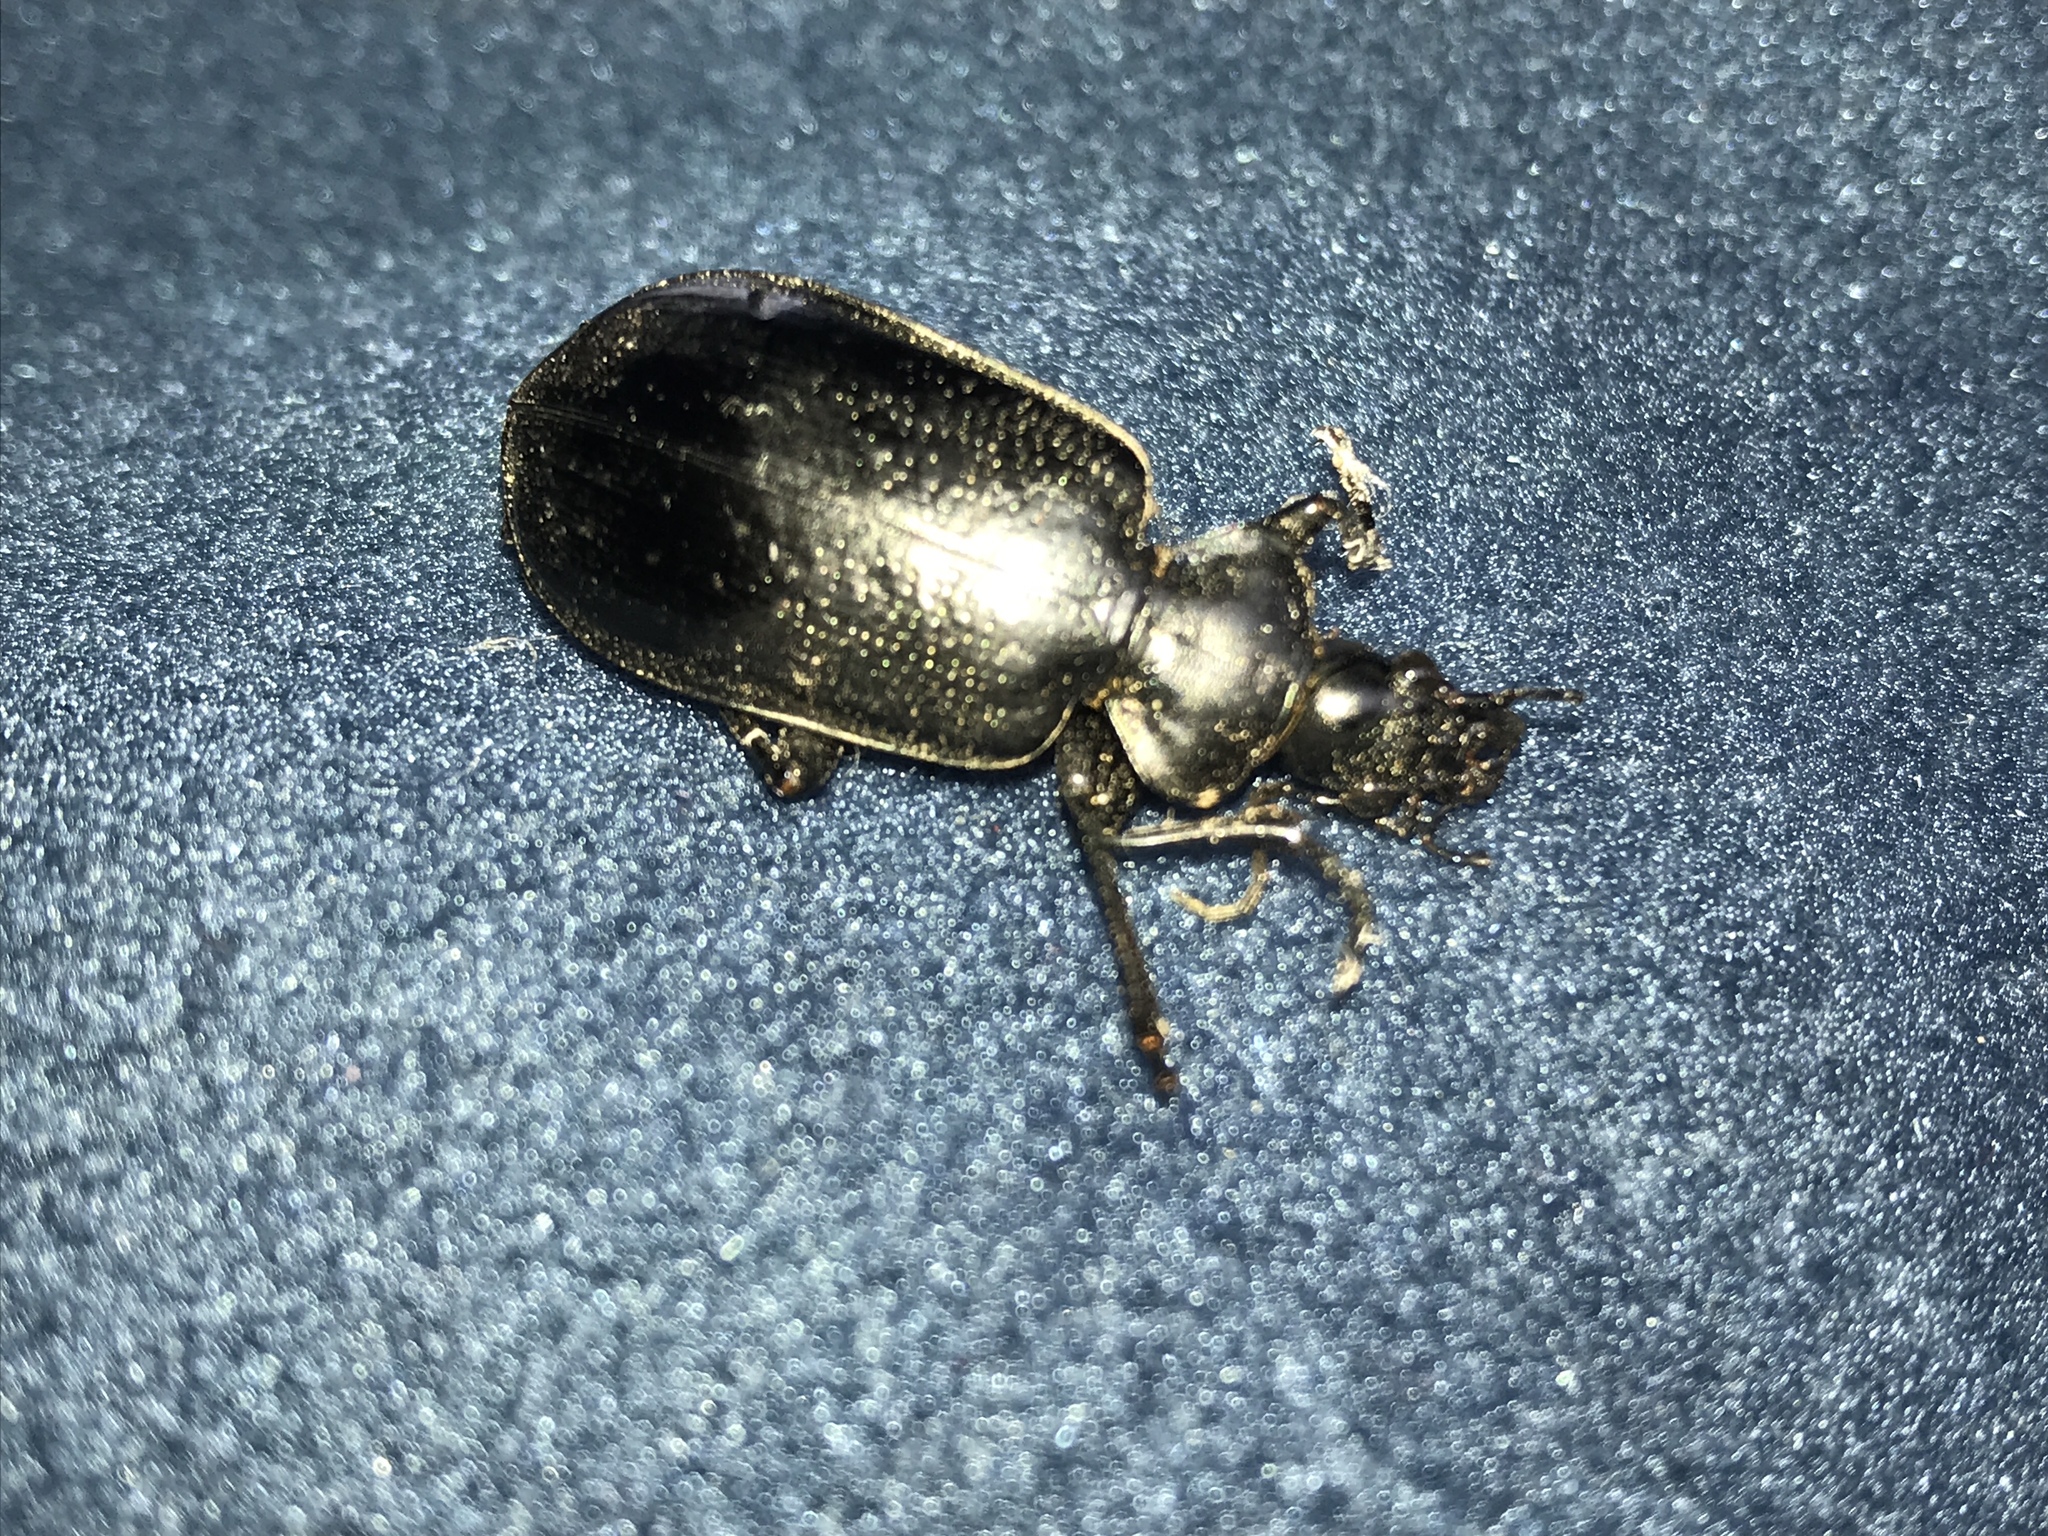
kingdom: Animalia
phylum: Arthropoda
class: Insecta
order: Coleoptera
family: Carabidae
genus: Calosoma
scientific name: Calosoma marginale
